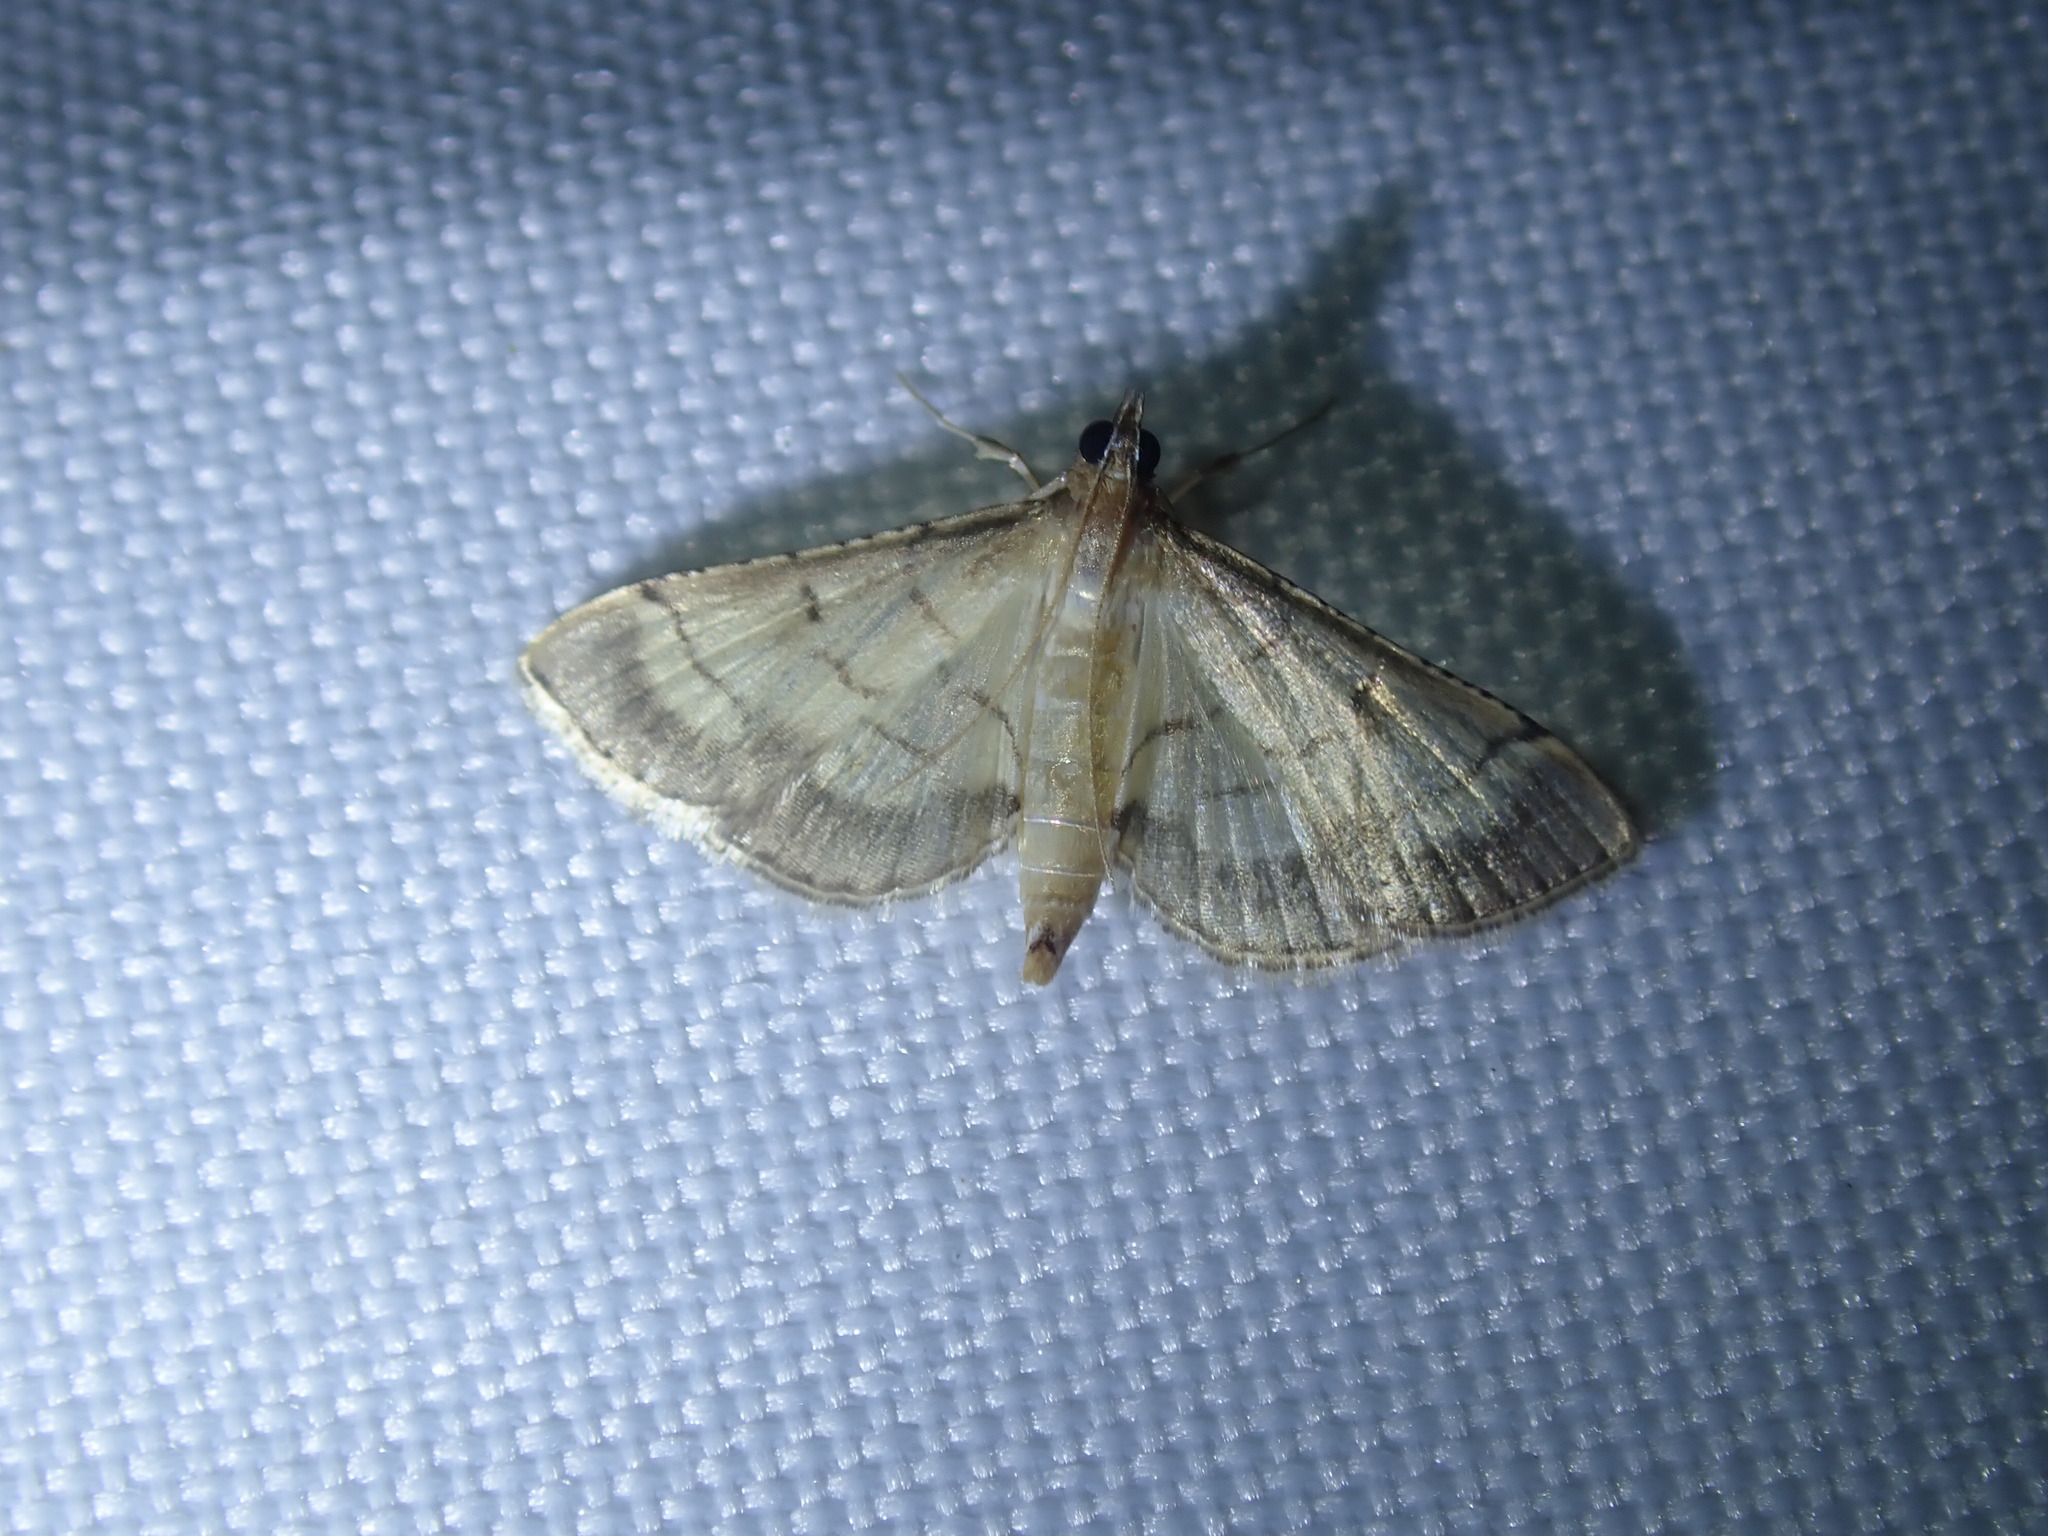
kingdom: Animalia
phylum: Arthropoda
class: Insecta
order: Lepidoptera
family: Crambidae
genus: Cnaphalocrocis
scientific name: Cnaphalocrocis poeyalis
